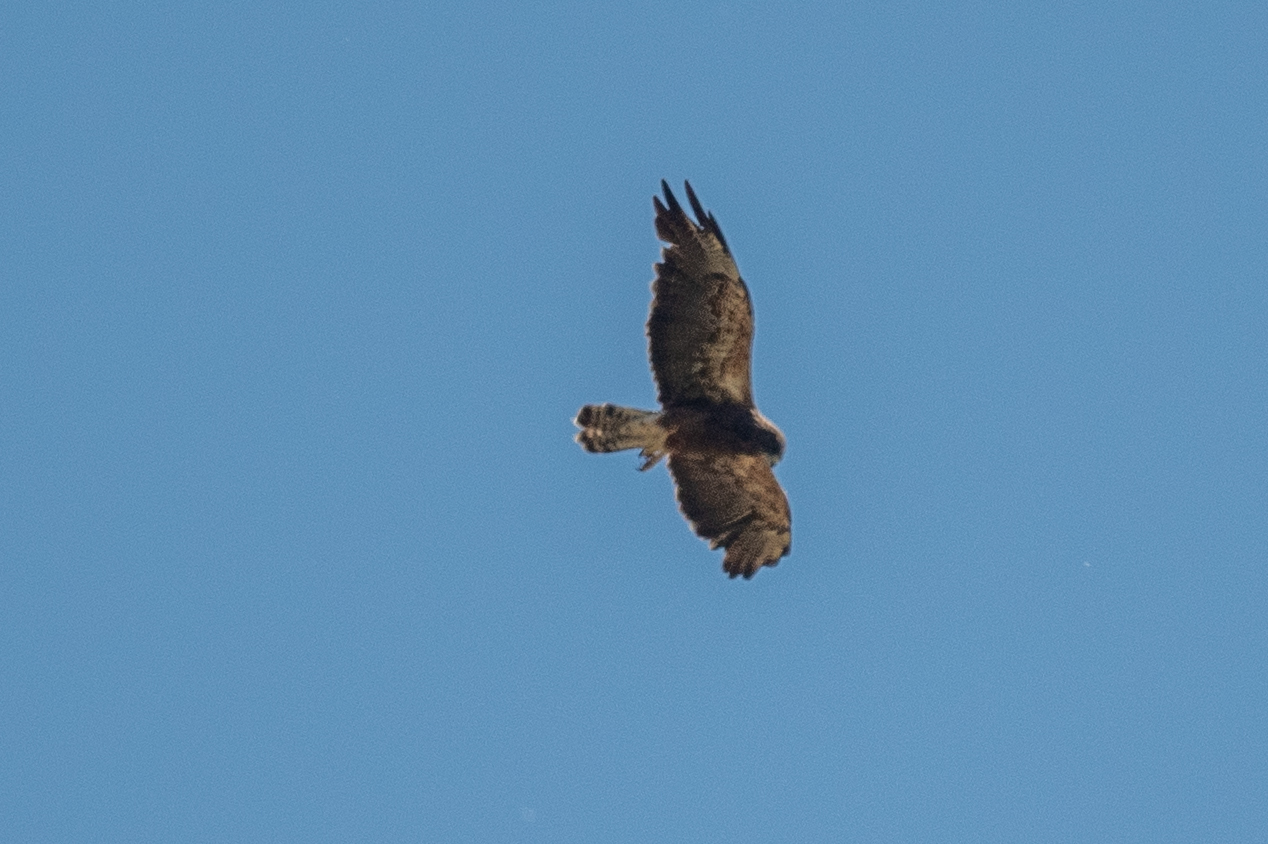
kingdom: Animalia
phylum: Chordata
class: Aves
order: Accipitriformes
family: Accipitridae
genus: Buteo
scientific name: Buteo swainsoni
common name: Swainson's hawk
